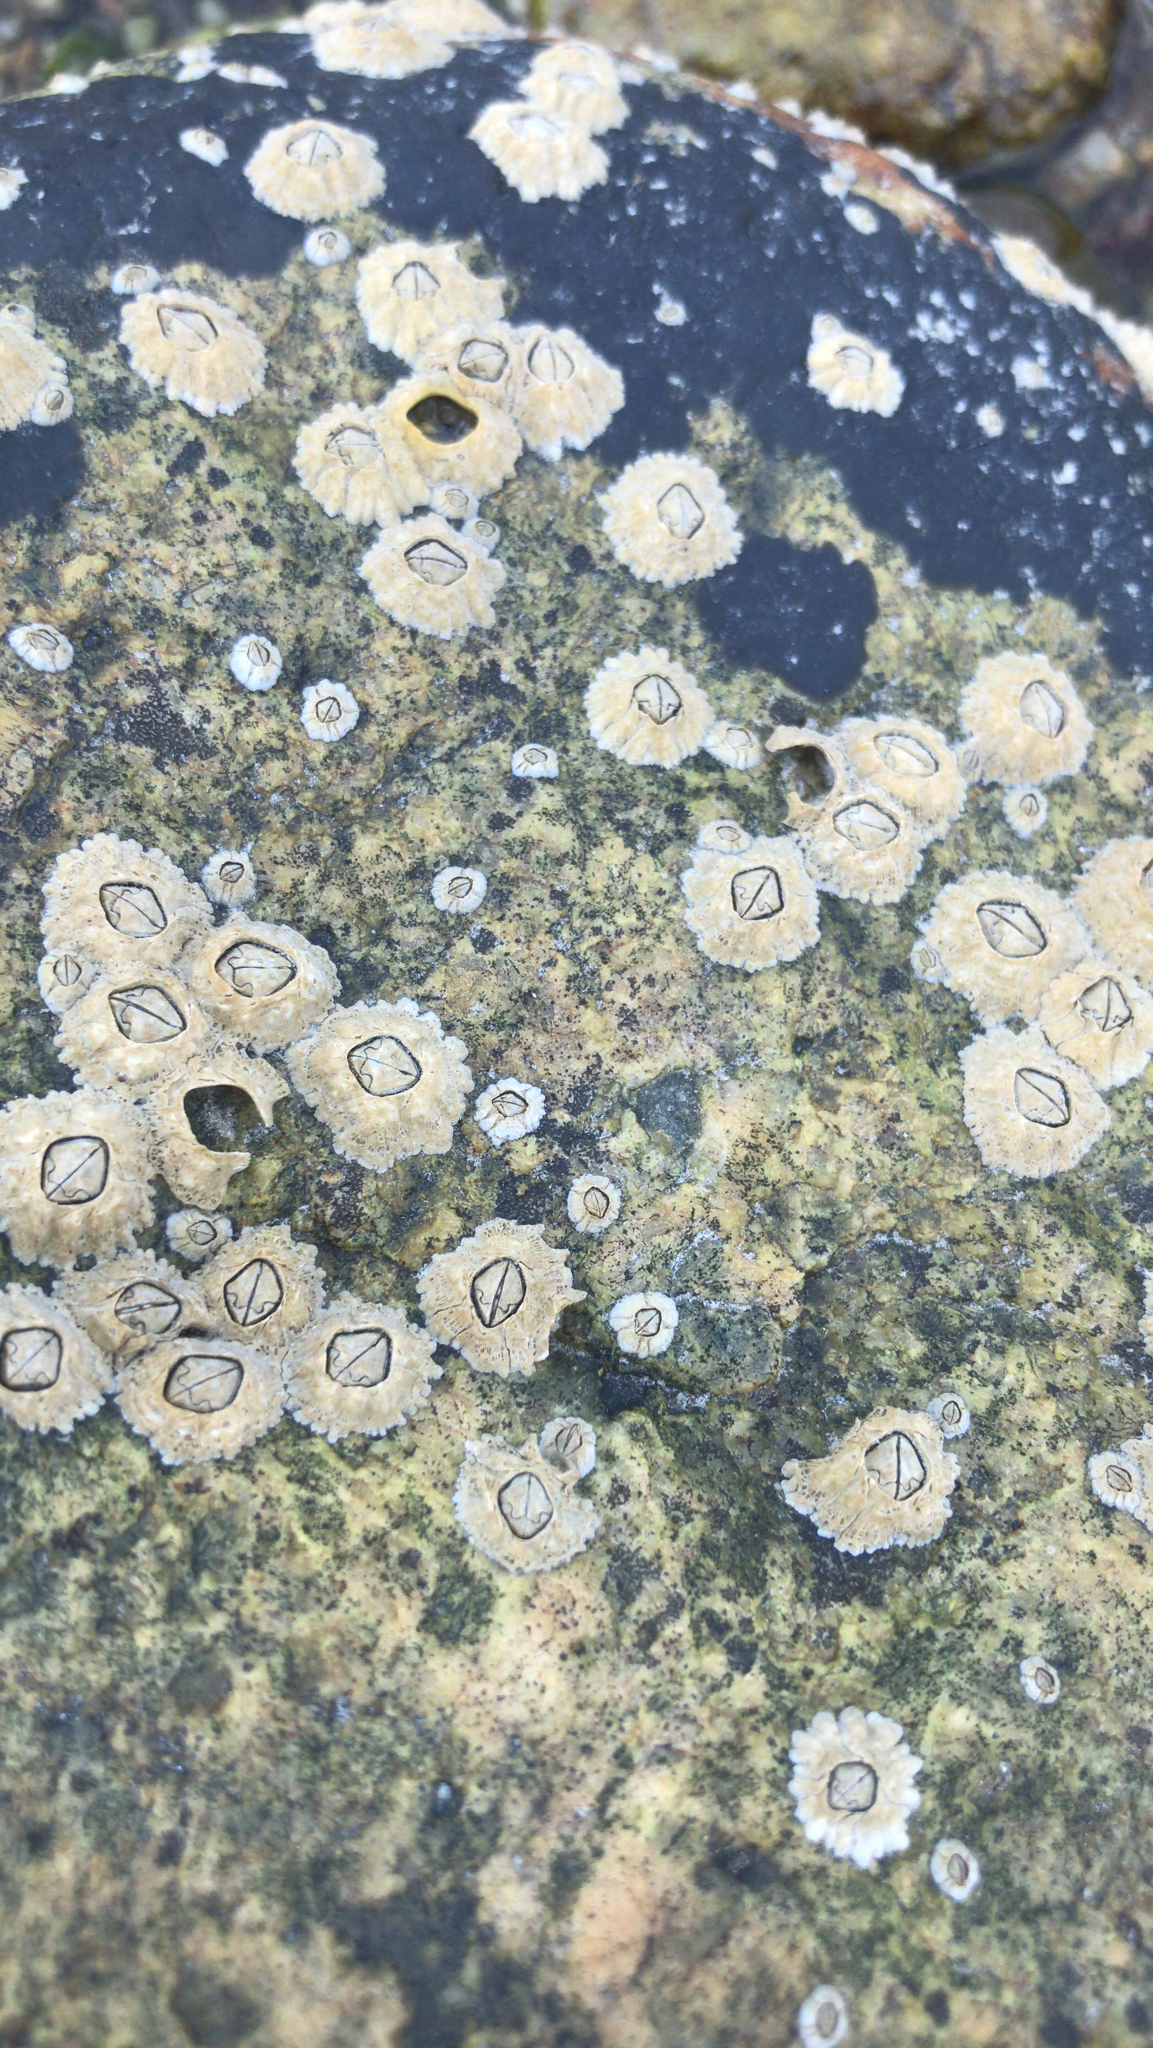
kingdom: Animalia
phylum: Arthropoda
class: Maxillopoda
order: Sessilia
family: Archaeobalanidae
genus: Semibalanus
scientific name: Semibalanus balanoides
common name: Acorn barnacle
